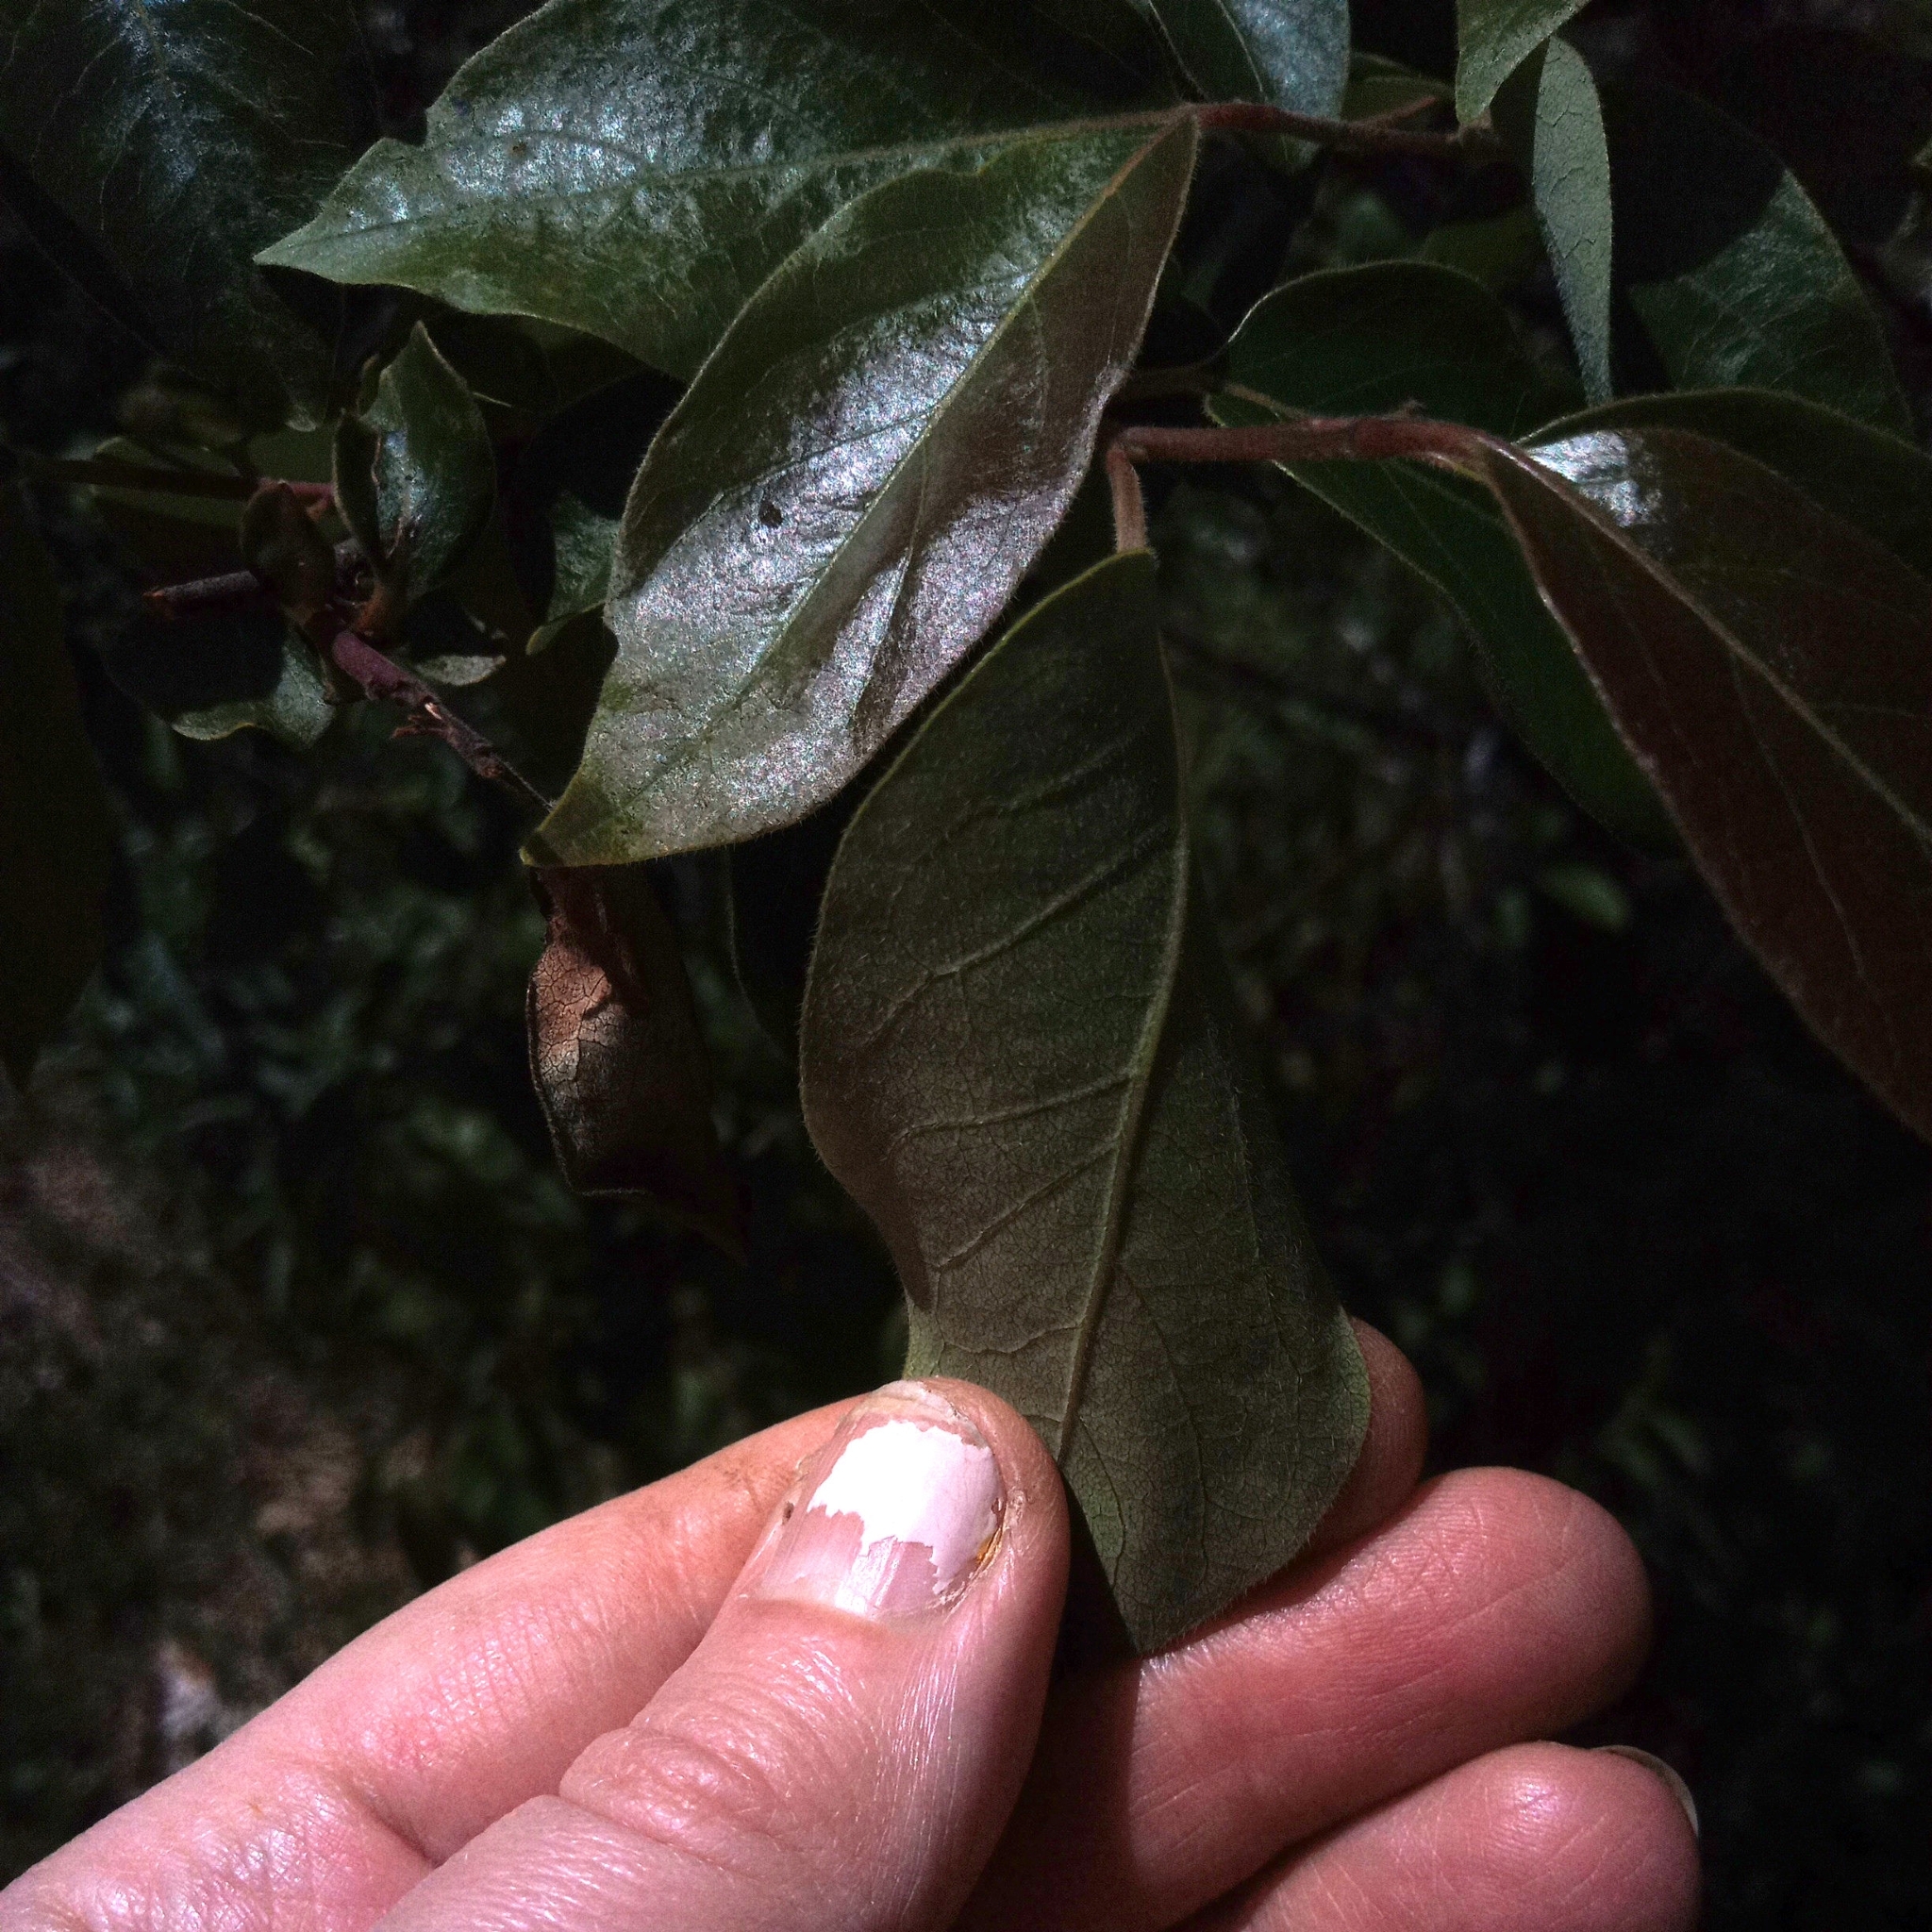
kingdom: Plantae
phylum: Tracheophyta
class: Magnoliopsida
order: Ericales
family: Ebenaceae
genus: Diospyros
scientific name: Diospyros virginiana
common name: Persimmon
